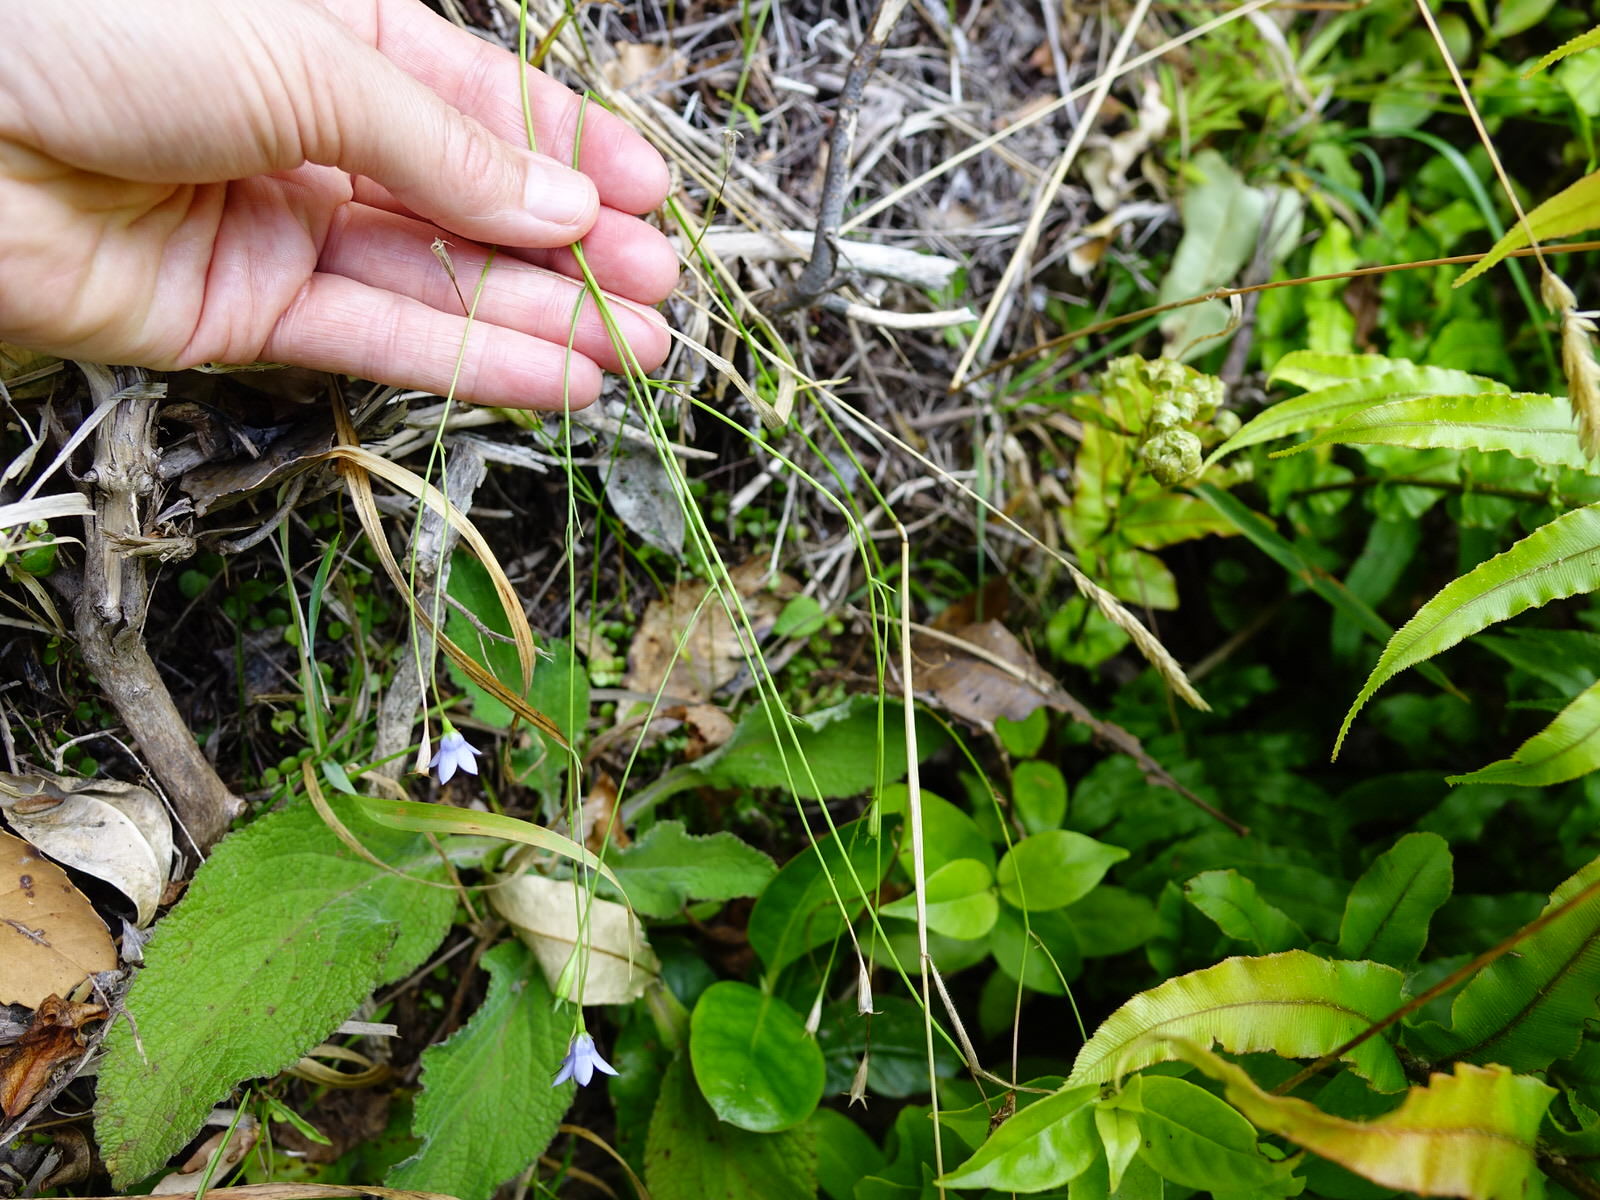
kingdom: Plantae
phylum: Tracheophyta
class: Magnoliopsida
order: Asterales
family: Campanulaceae
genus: Wahlenbergia
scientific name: Wahlenbergia violacea
